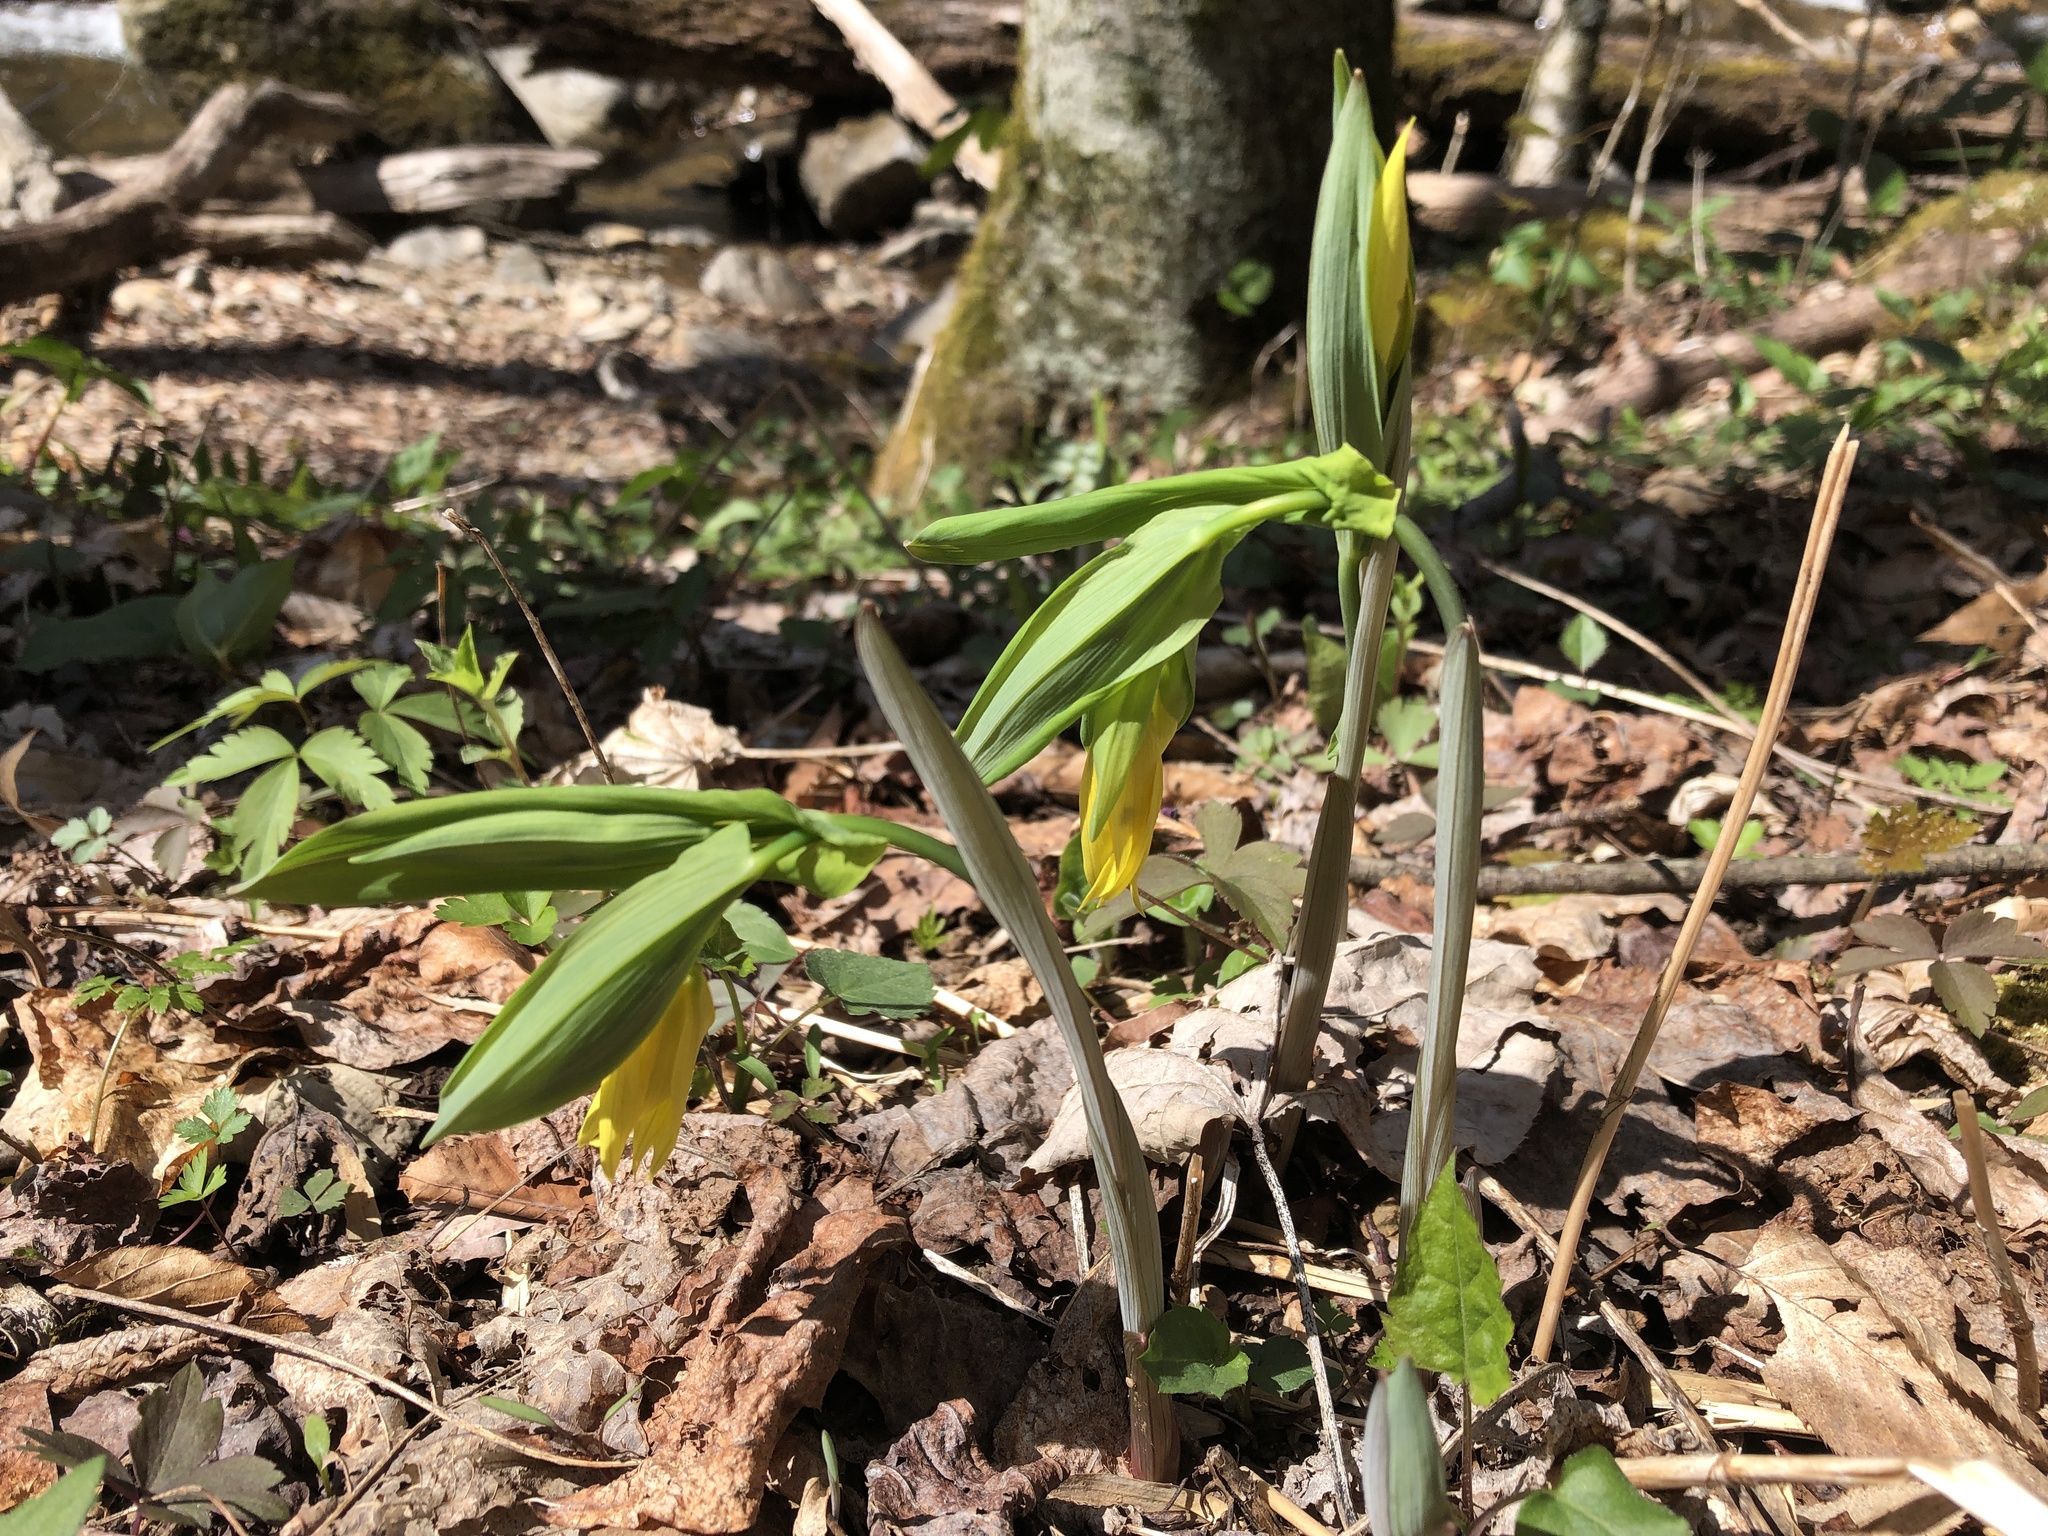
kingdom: Plantae
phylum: Tracheophyta
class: Liliopsida
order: Liliales
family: Colchicaceae
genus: Uvularia
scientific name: Uvularia grandiflora
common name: Bellwort
